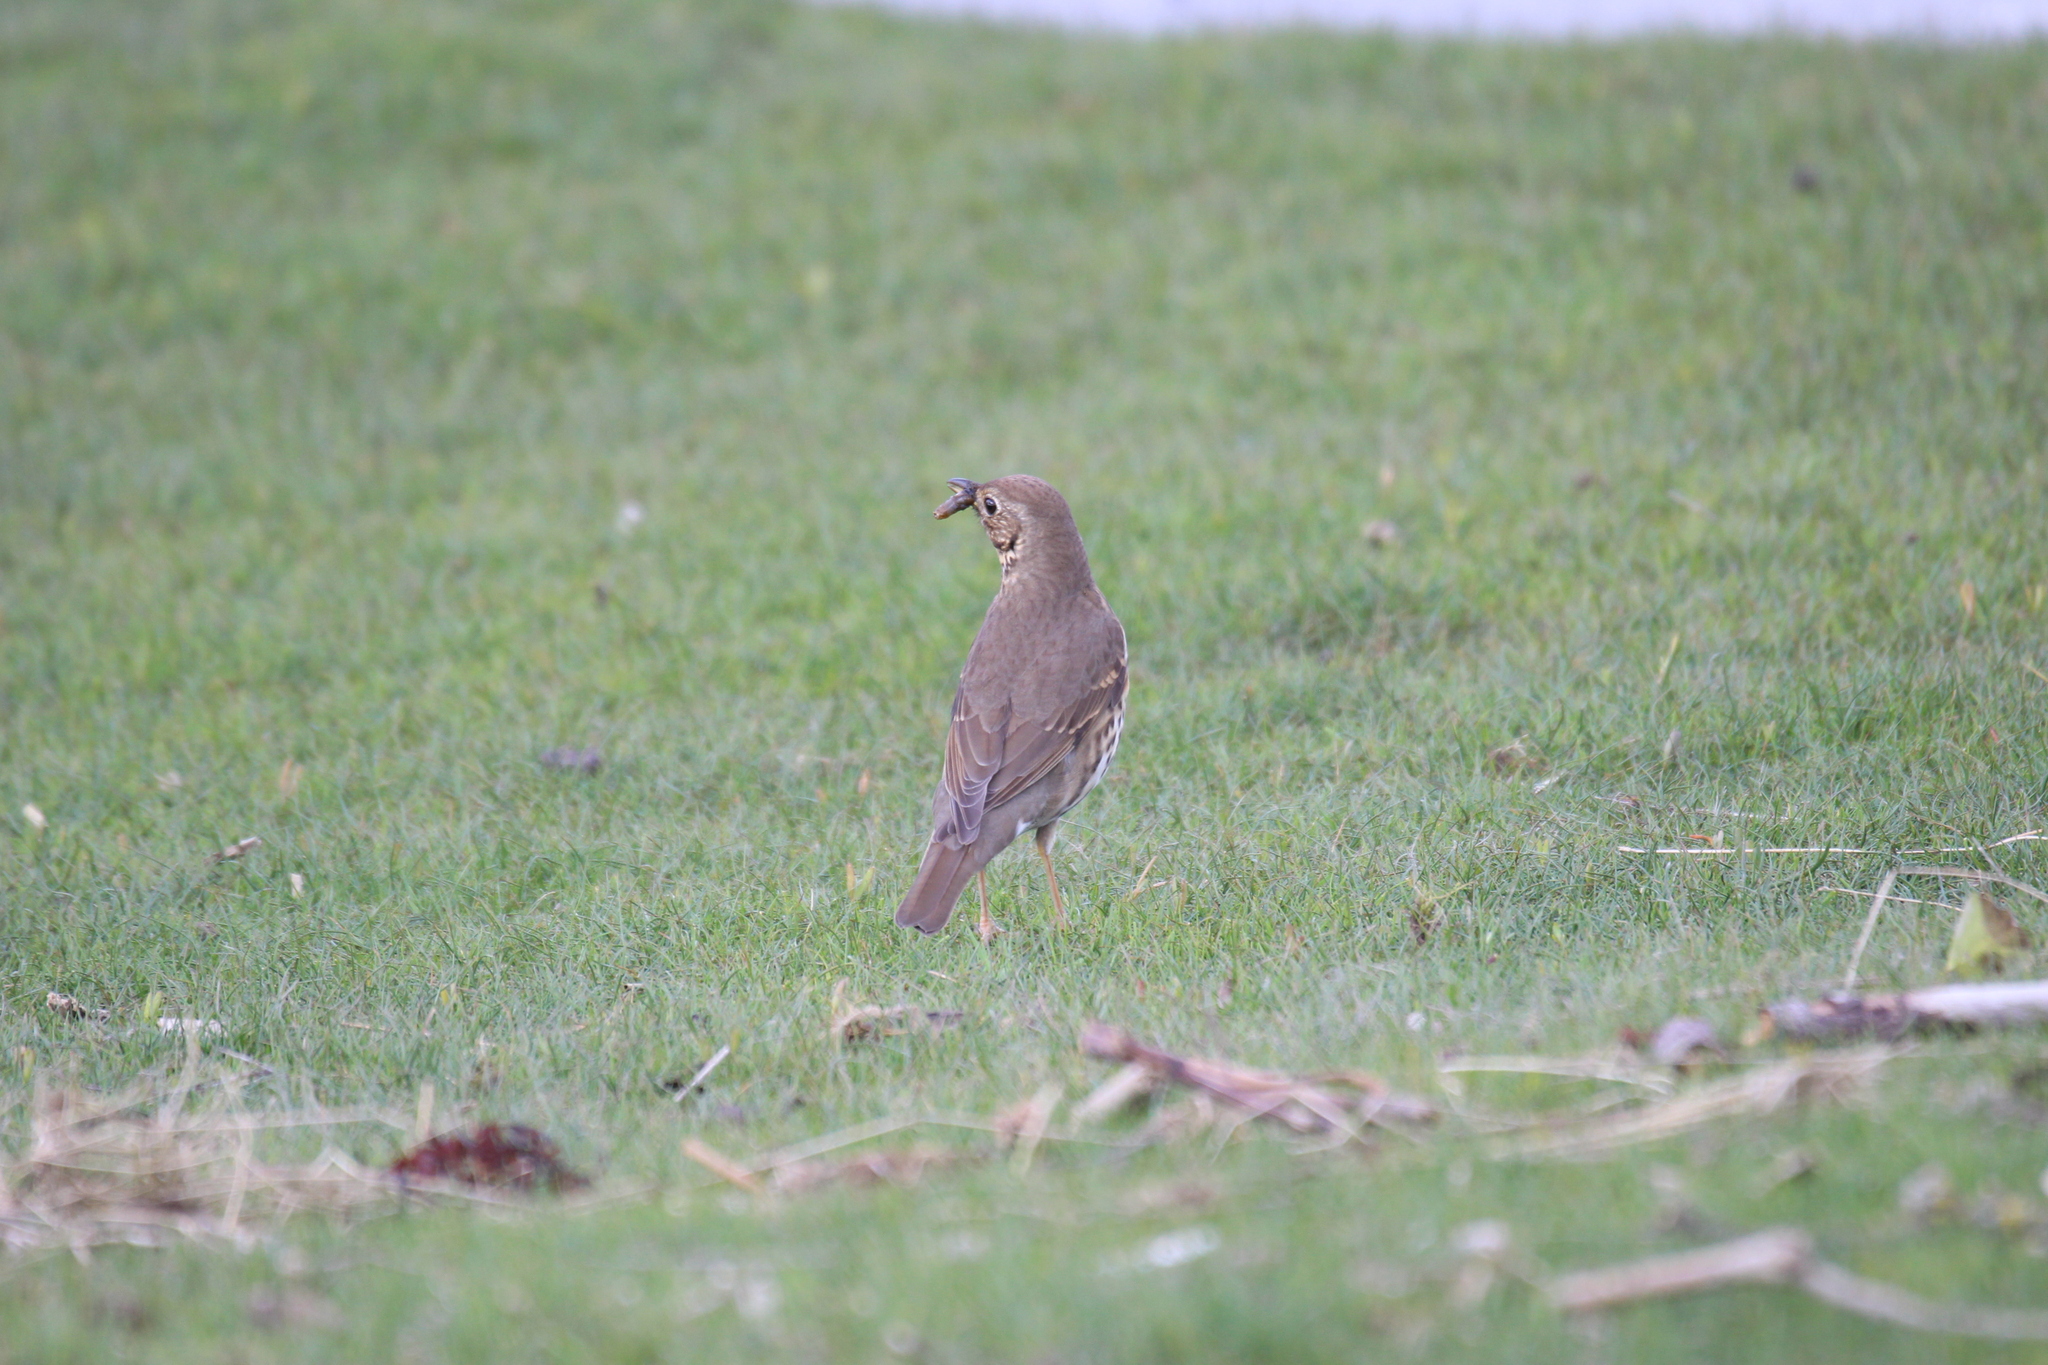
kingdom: Animalia
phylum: Chordata
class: Aves
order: Passeriformes
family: Turdidae
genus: Turdus
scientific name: Turdus philomelos
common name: Song thrush
